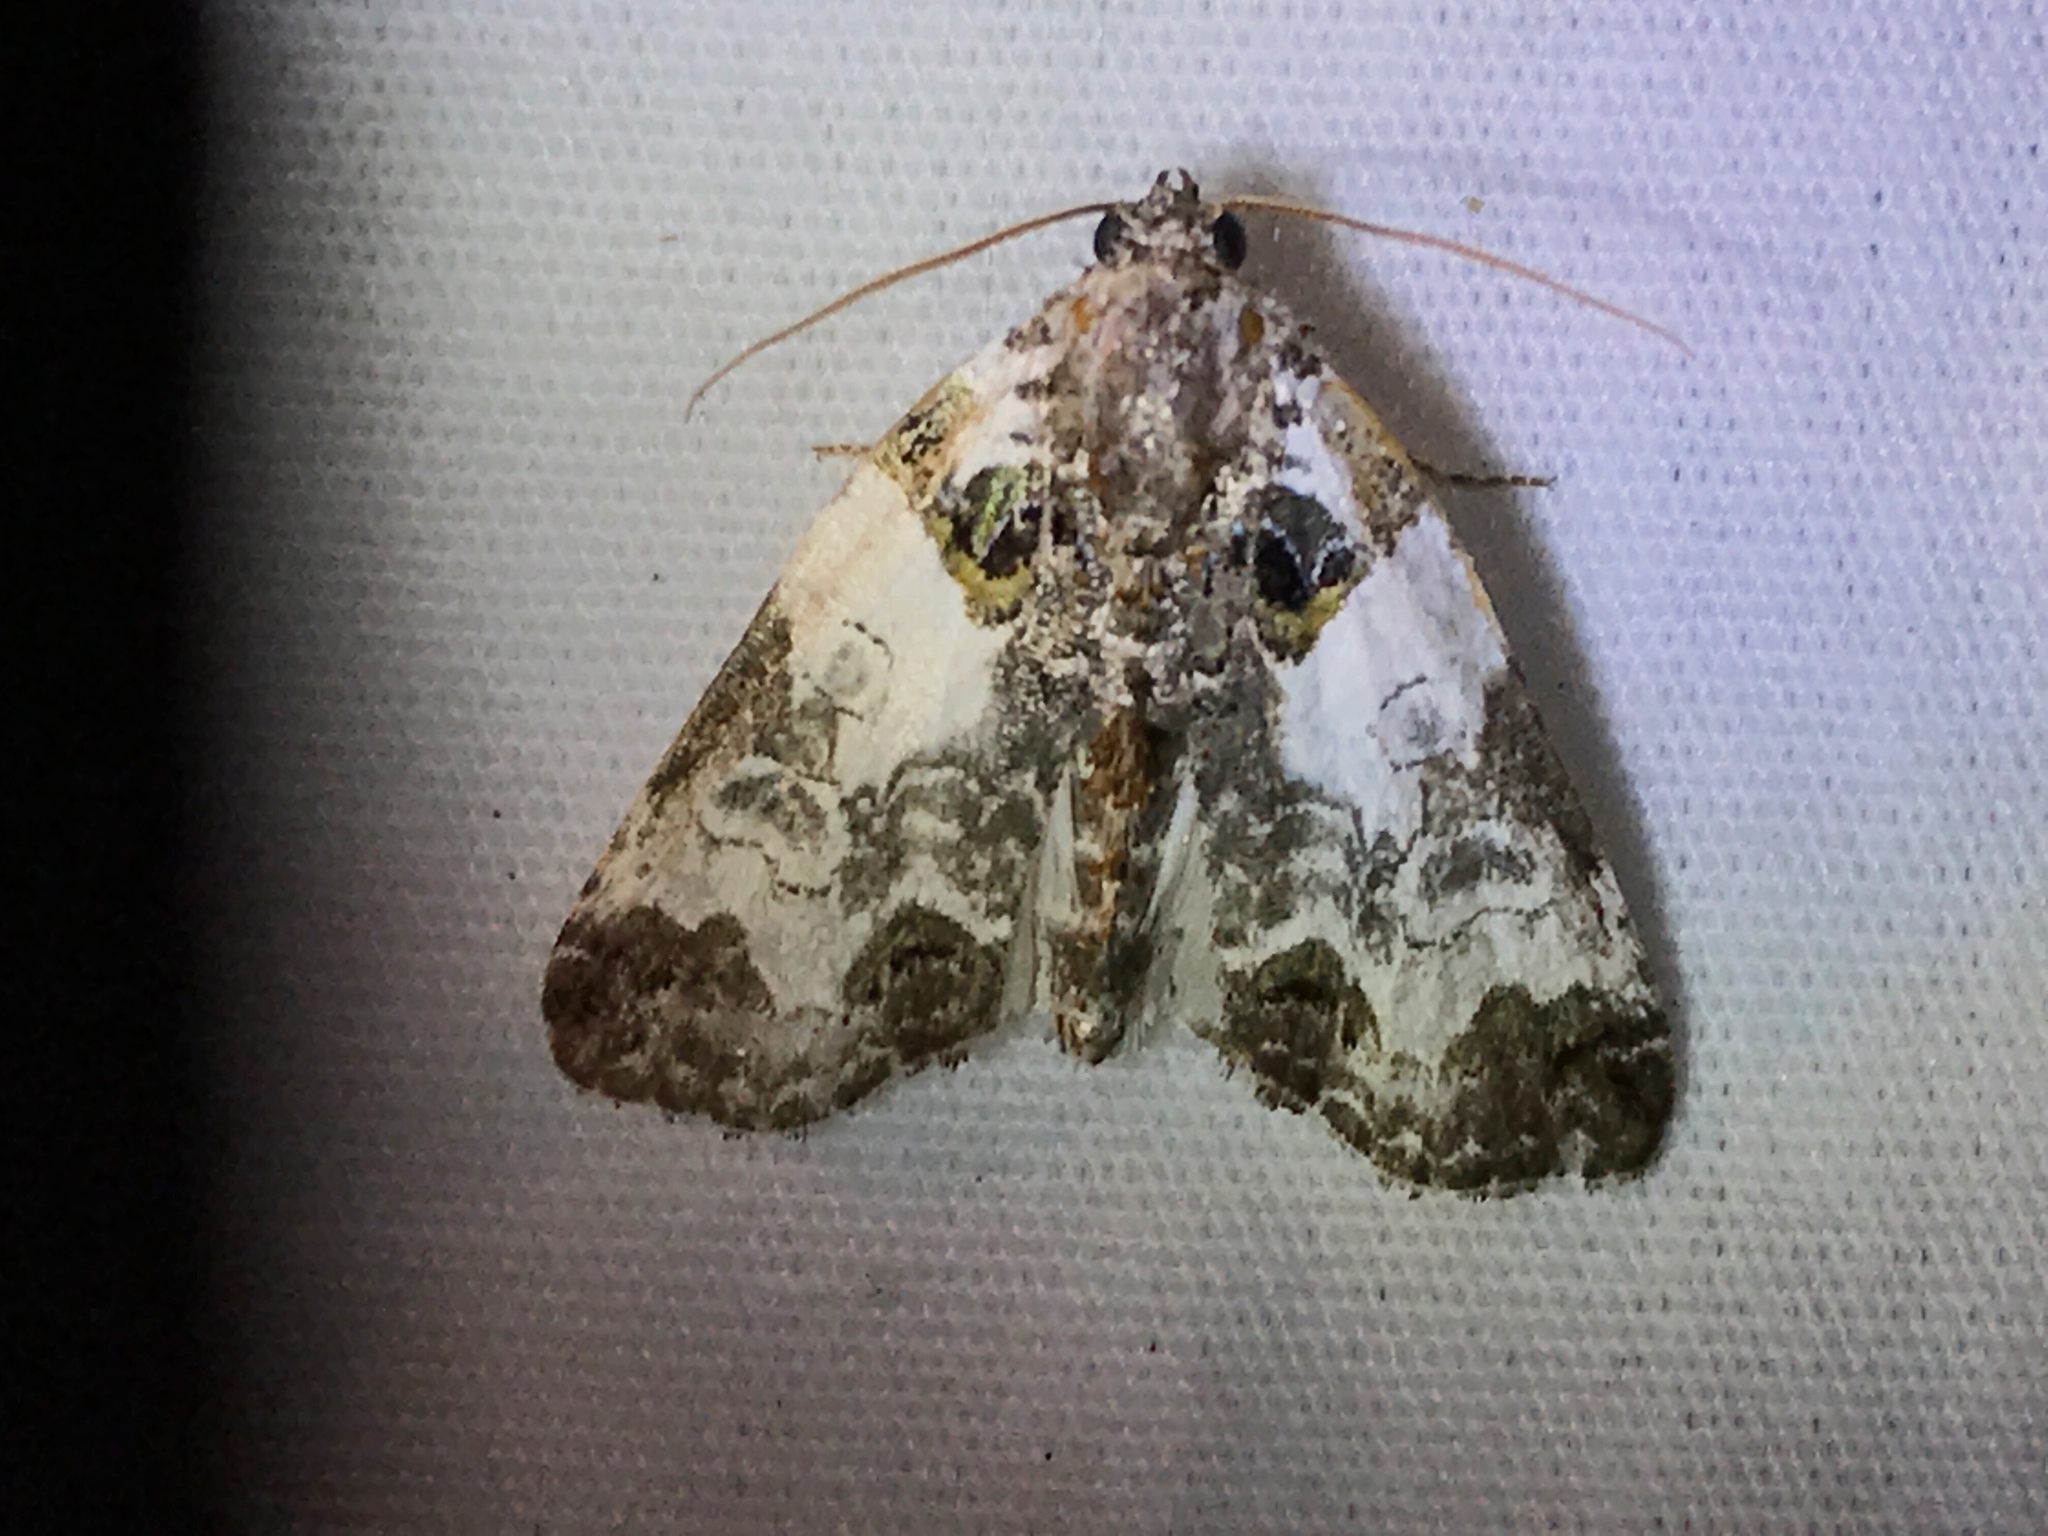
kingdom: Animalia
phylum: Arthropoda
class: Insecta
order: Lepidoptera
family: Noctuidae
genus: Cerma
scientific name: Cerma cerintha
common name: Tufted bird-dropping moth
